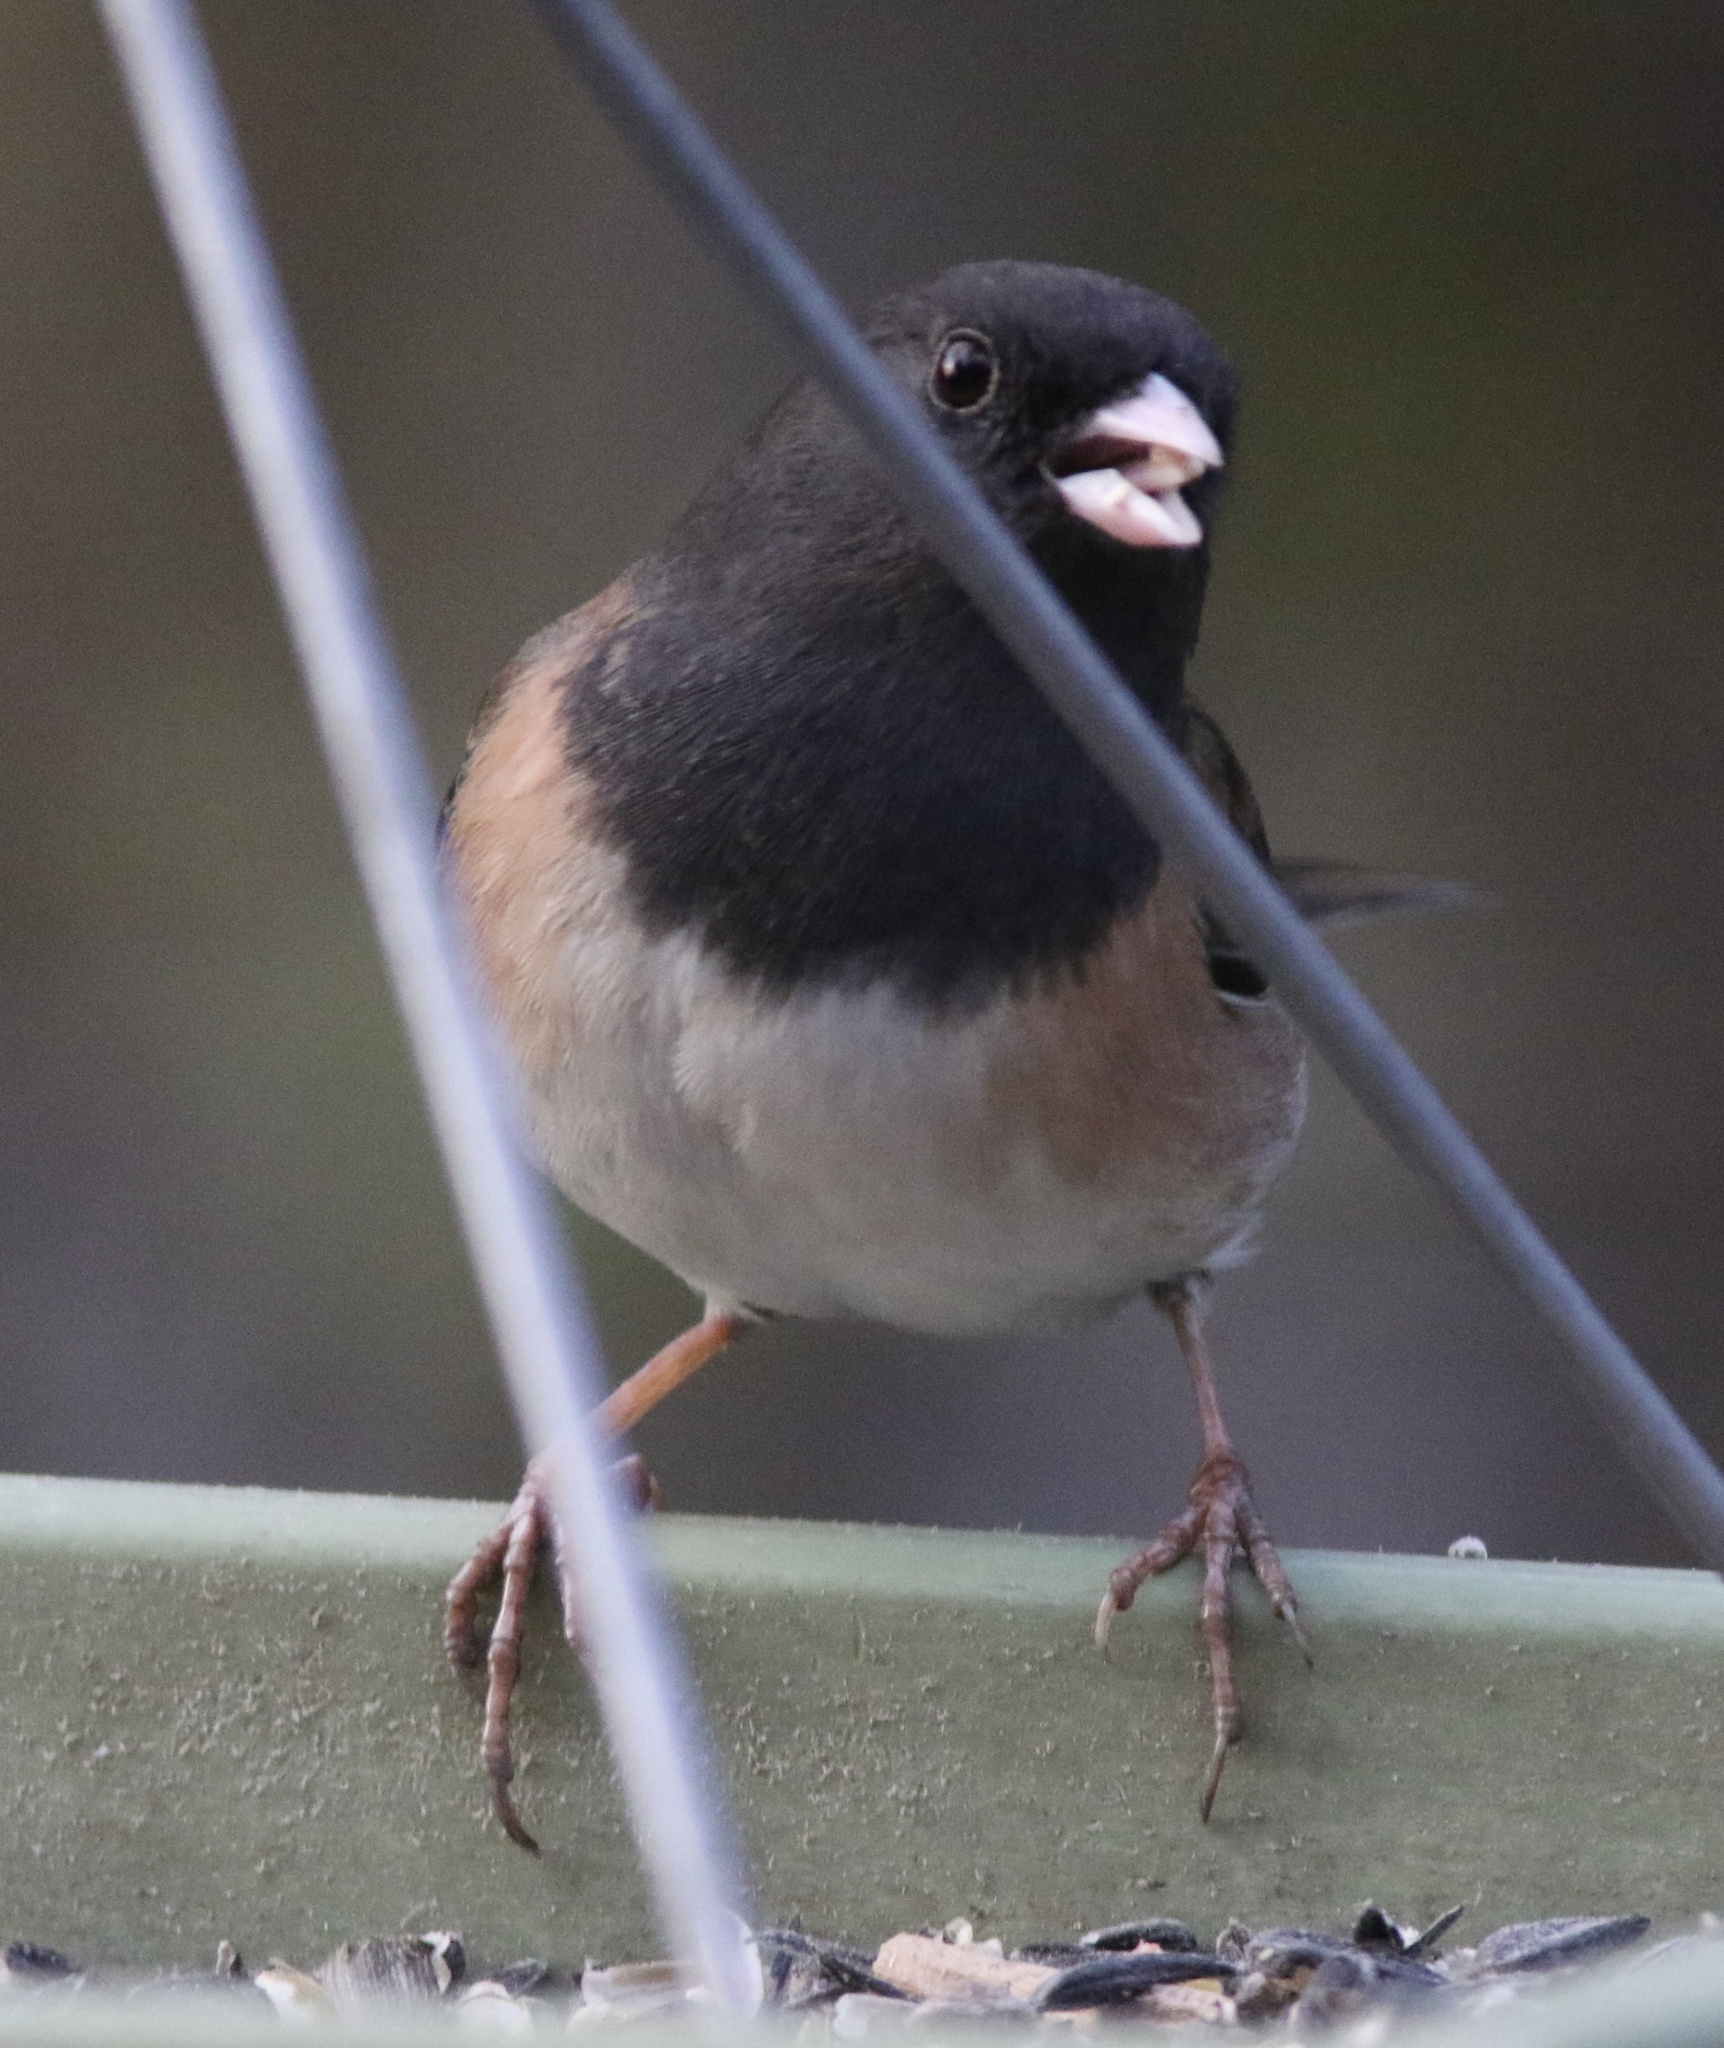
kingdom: Animalia
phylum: Chordata
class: Aves
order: Passeriformes
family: Passerellidae
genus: Junco
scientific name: Junco hyemalis
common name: Dark-eyed junco
